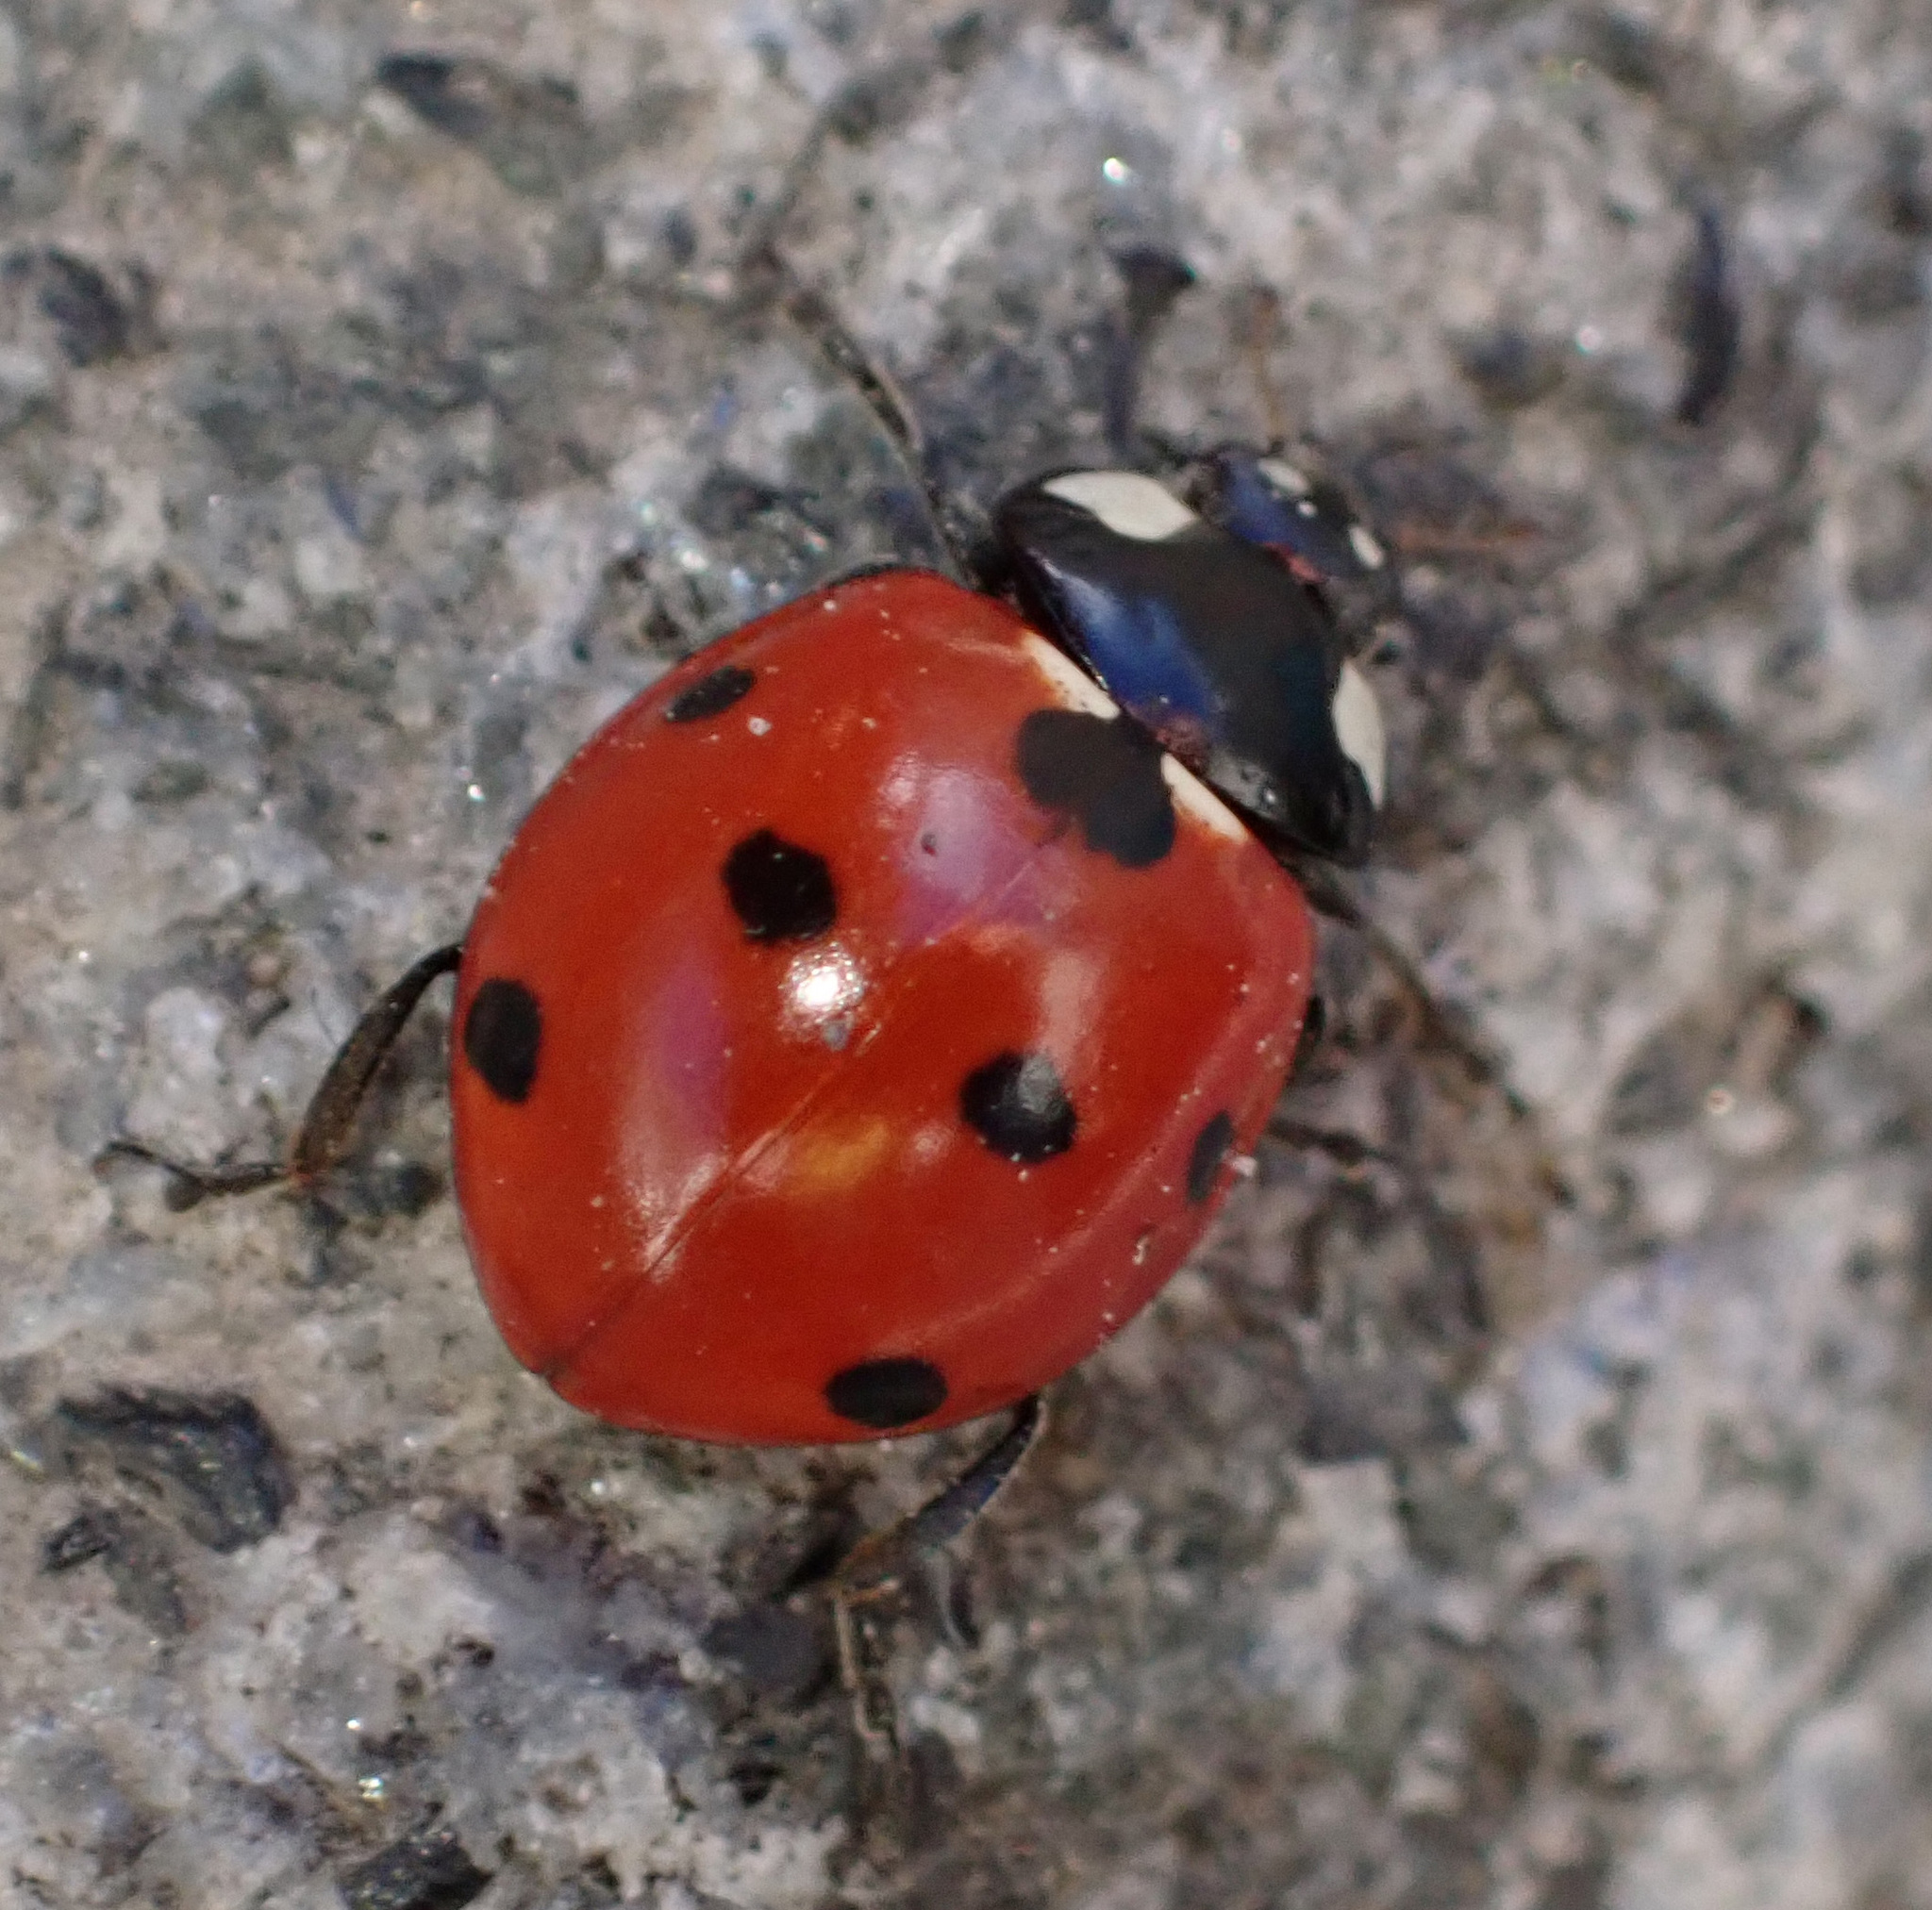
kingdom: Animalia
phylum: Arthropoda
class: Insecta
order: Coleoptera
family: Coccinellidae
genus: Coccinella
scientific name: Coccinella septempunctata
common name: Sevenspotted lady beetle
